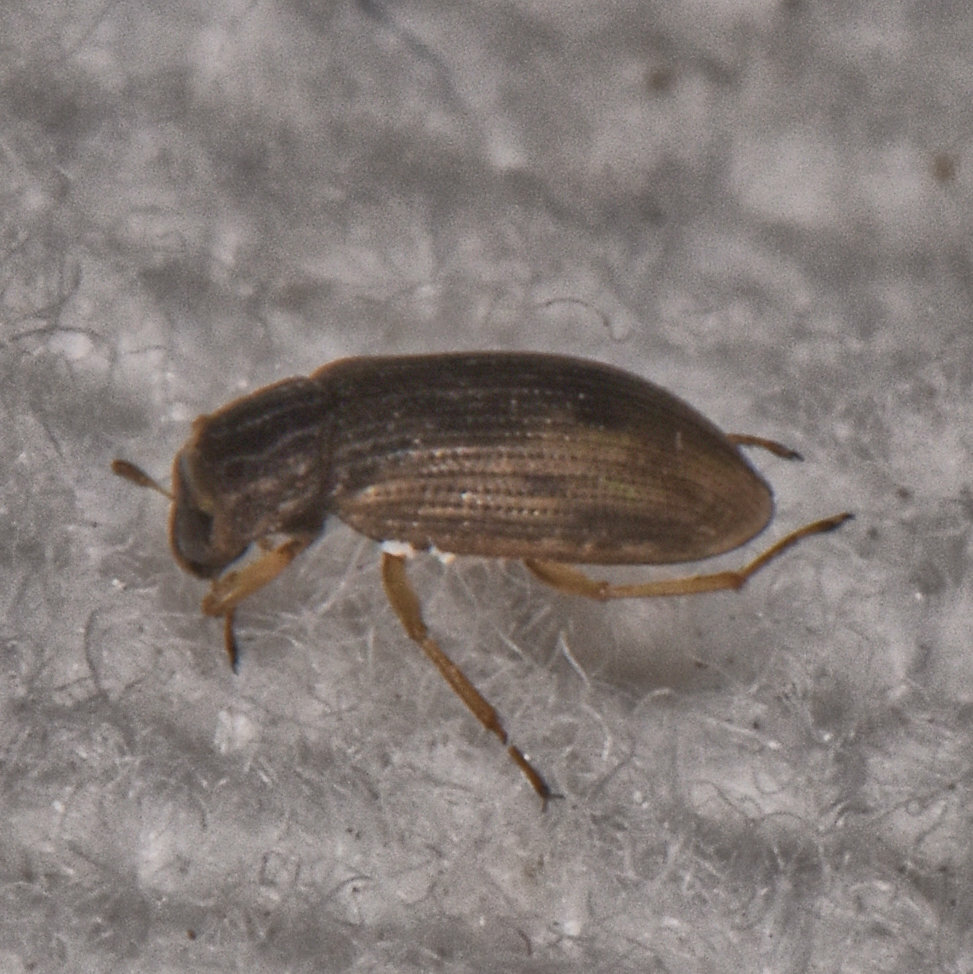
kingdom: Animalia
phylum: Arthropoda
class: Insecta
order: Coleoptera
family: Helophoridae
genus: Helophorus
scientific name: Helophorus
